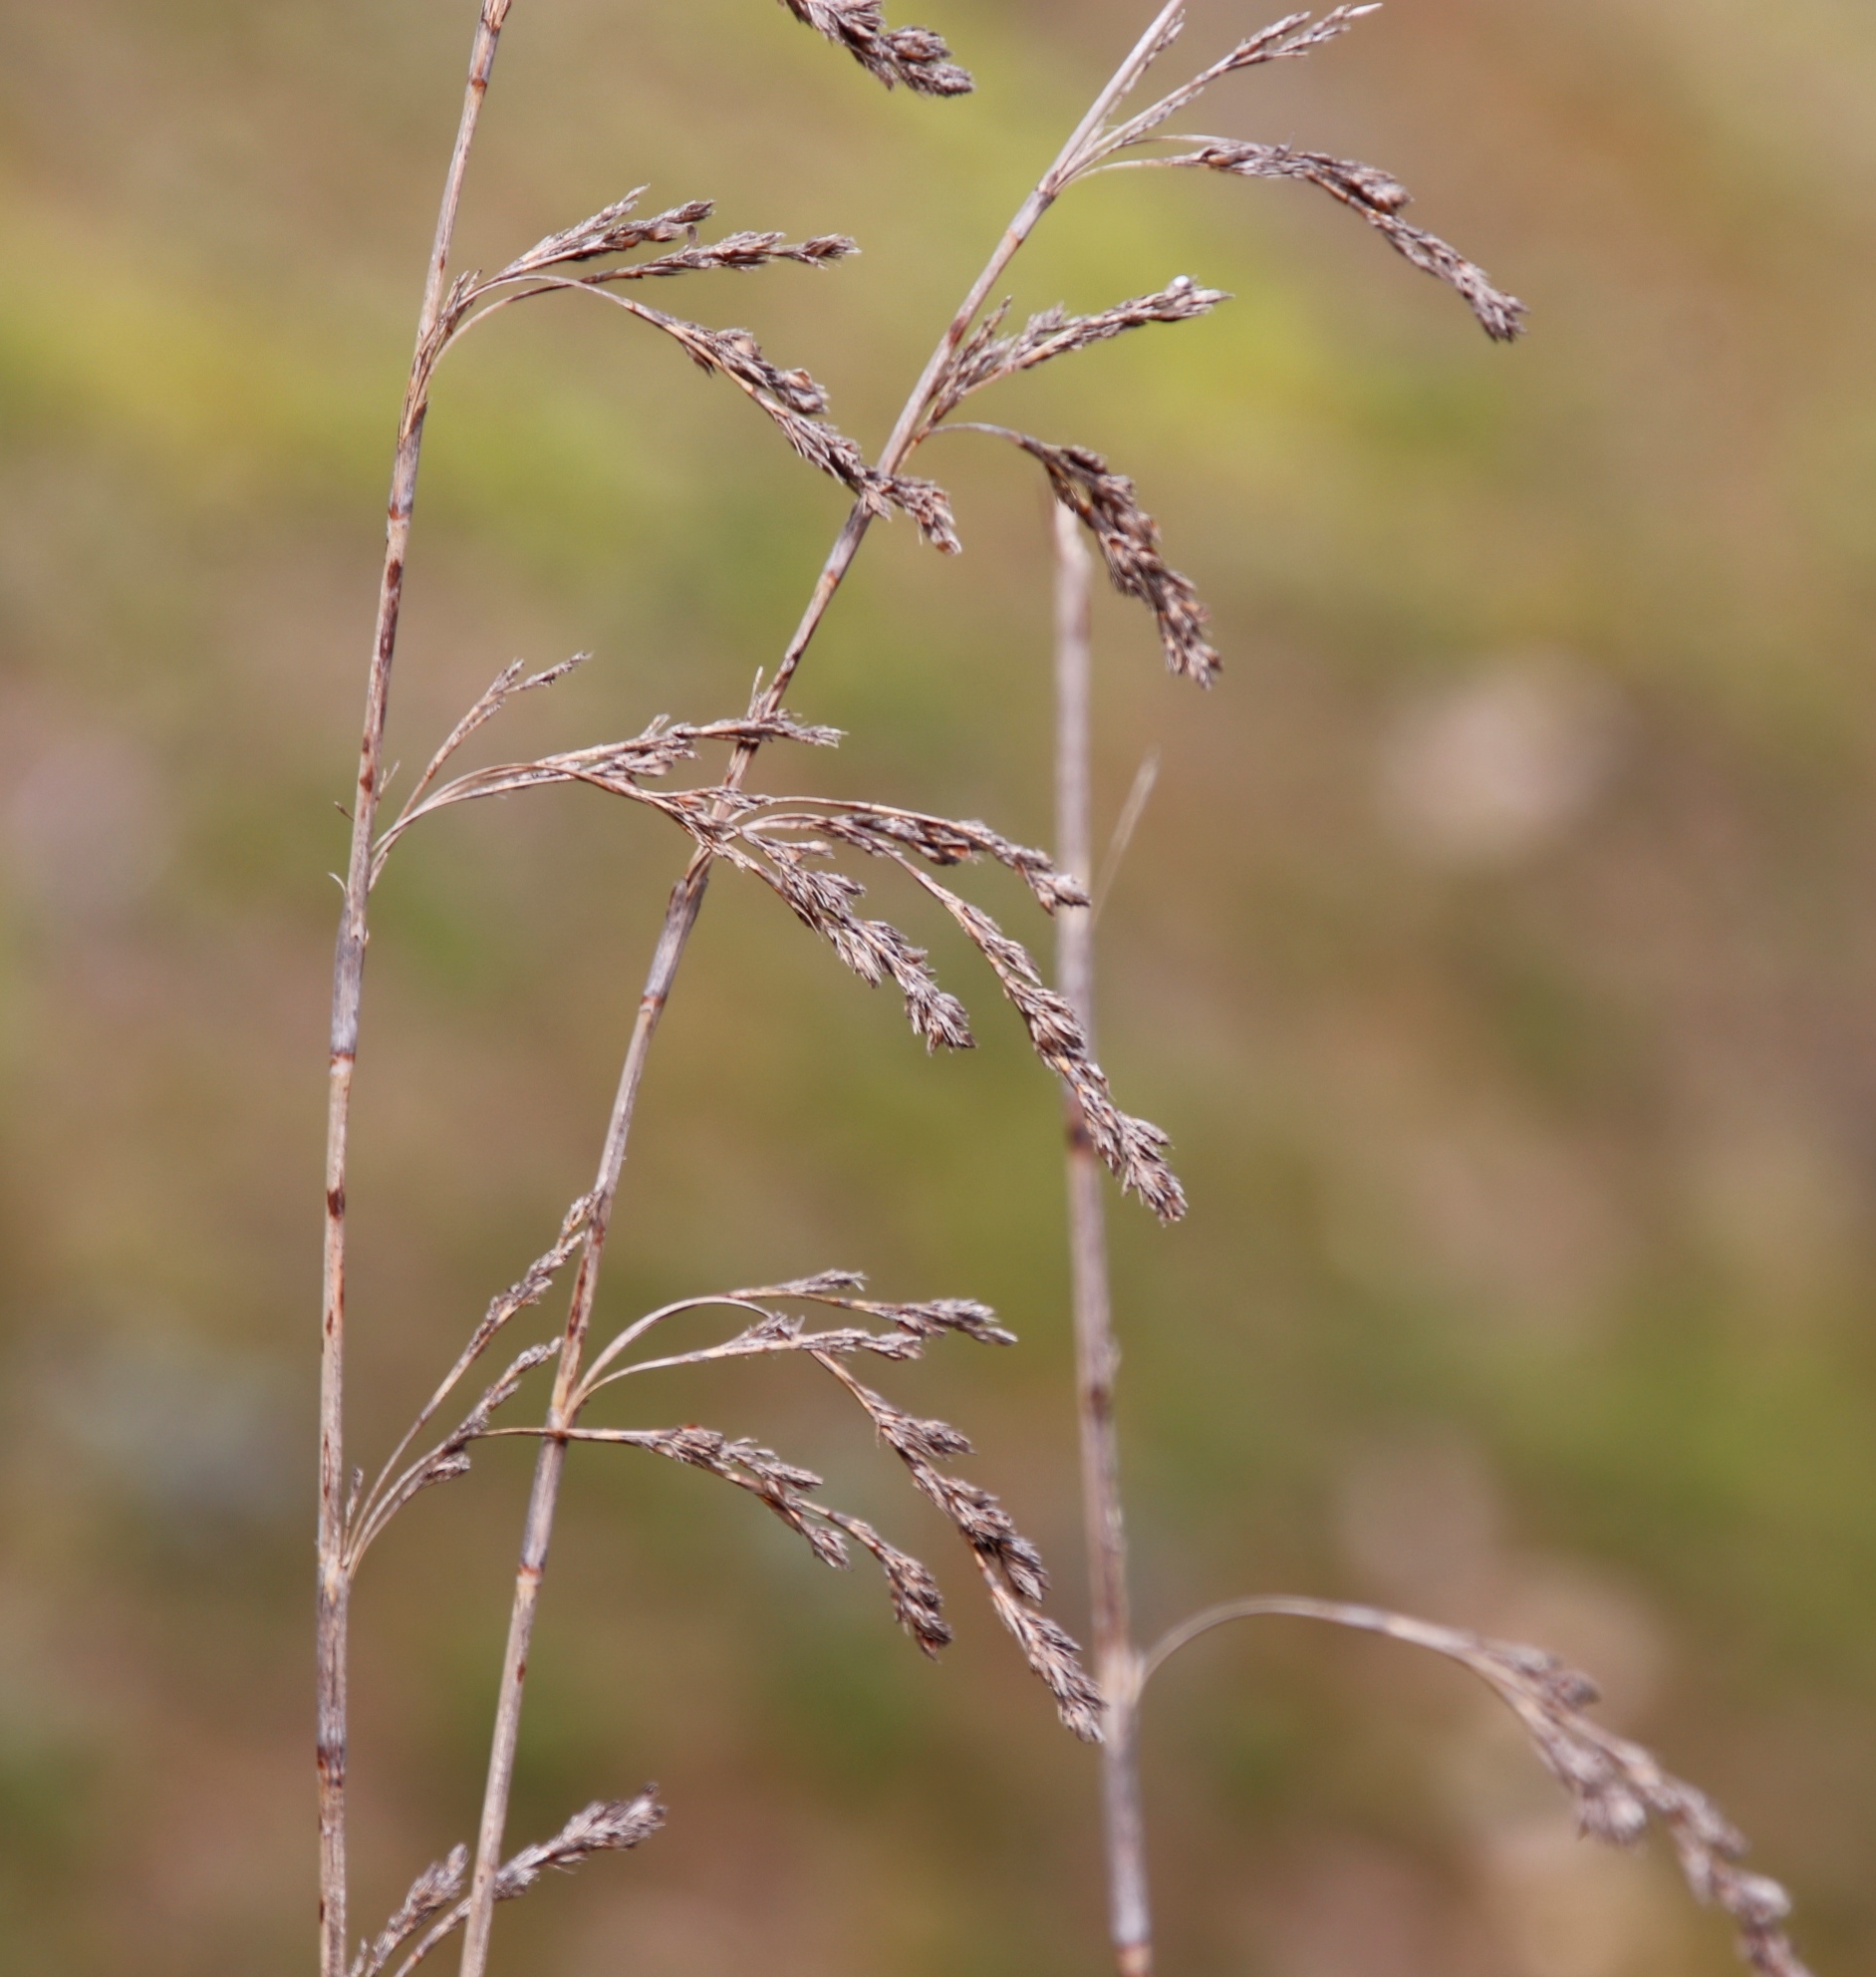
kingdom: Plantae
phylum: Tracheophyta
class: Liliopsida
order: Poales
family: Cyperaceae
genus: Tetraria
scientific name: Tetraria involucrata
